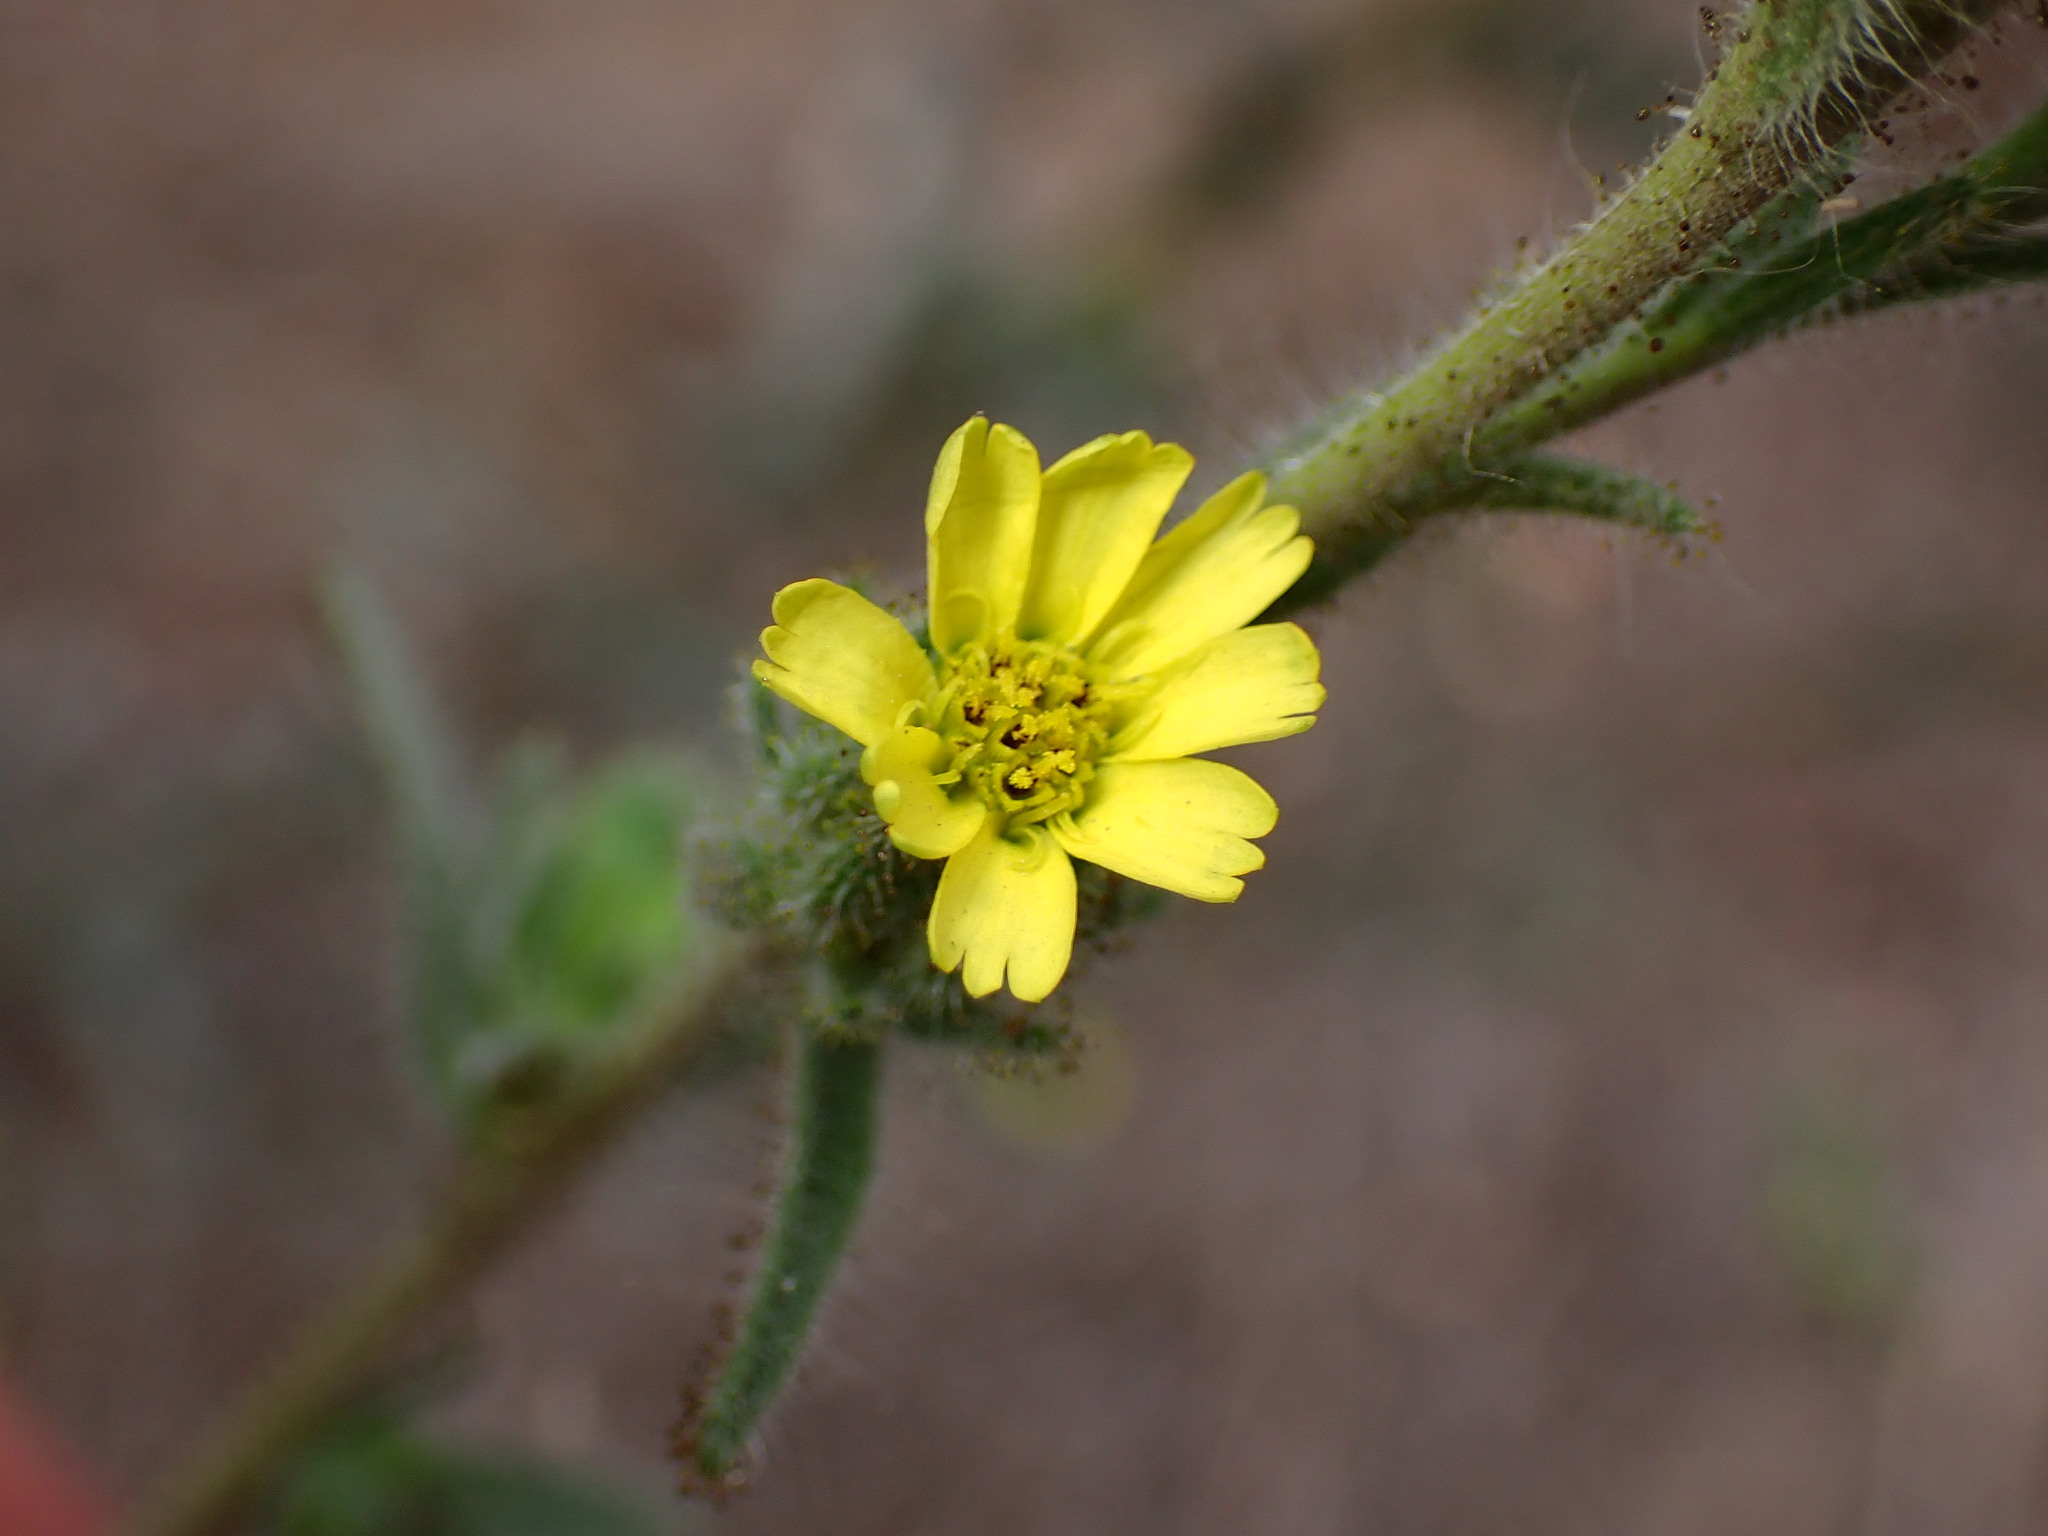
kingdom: Plantae
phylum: Tracheophyta
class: Magnoliopsida
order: Asterales
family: Asteraceae
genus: Madia
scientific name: Madia sativa
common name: Coast tarweed
